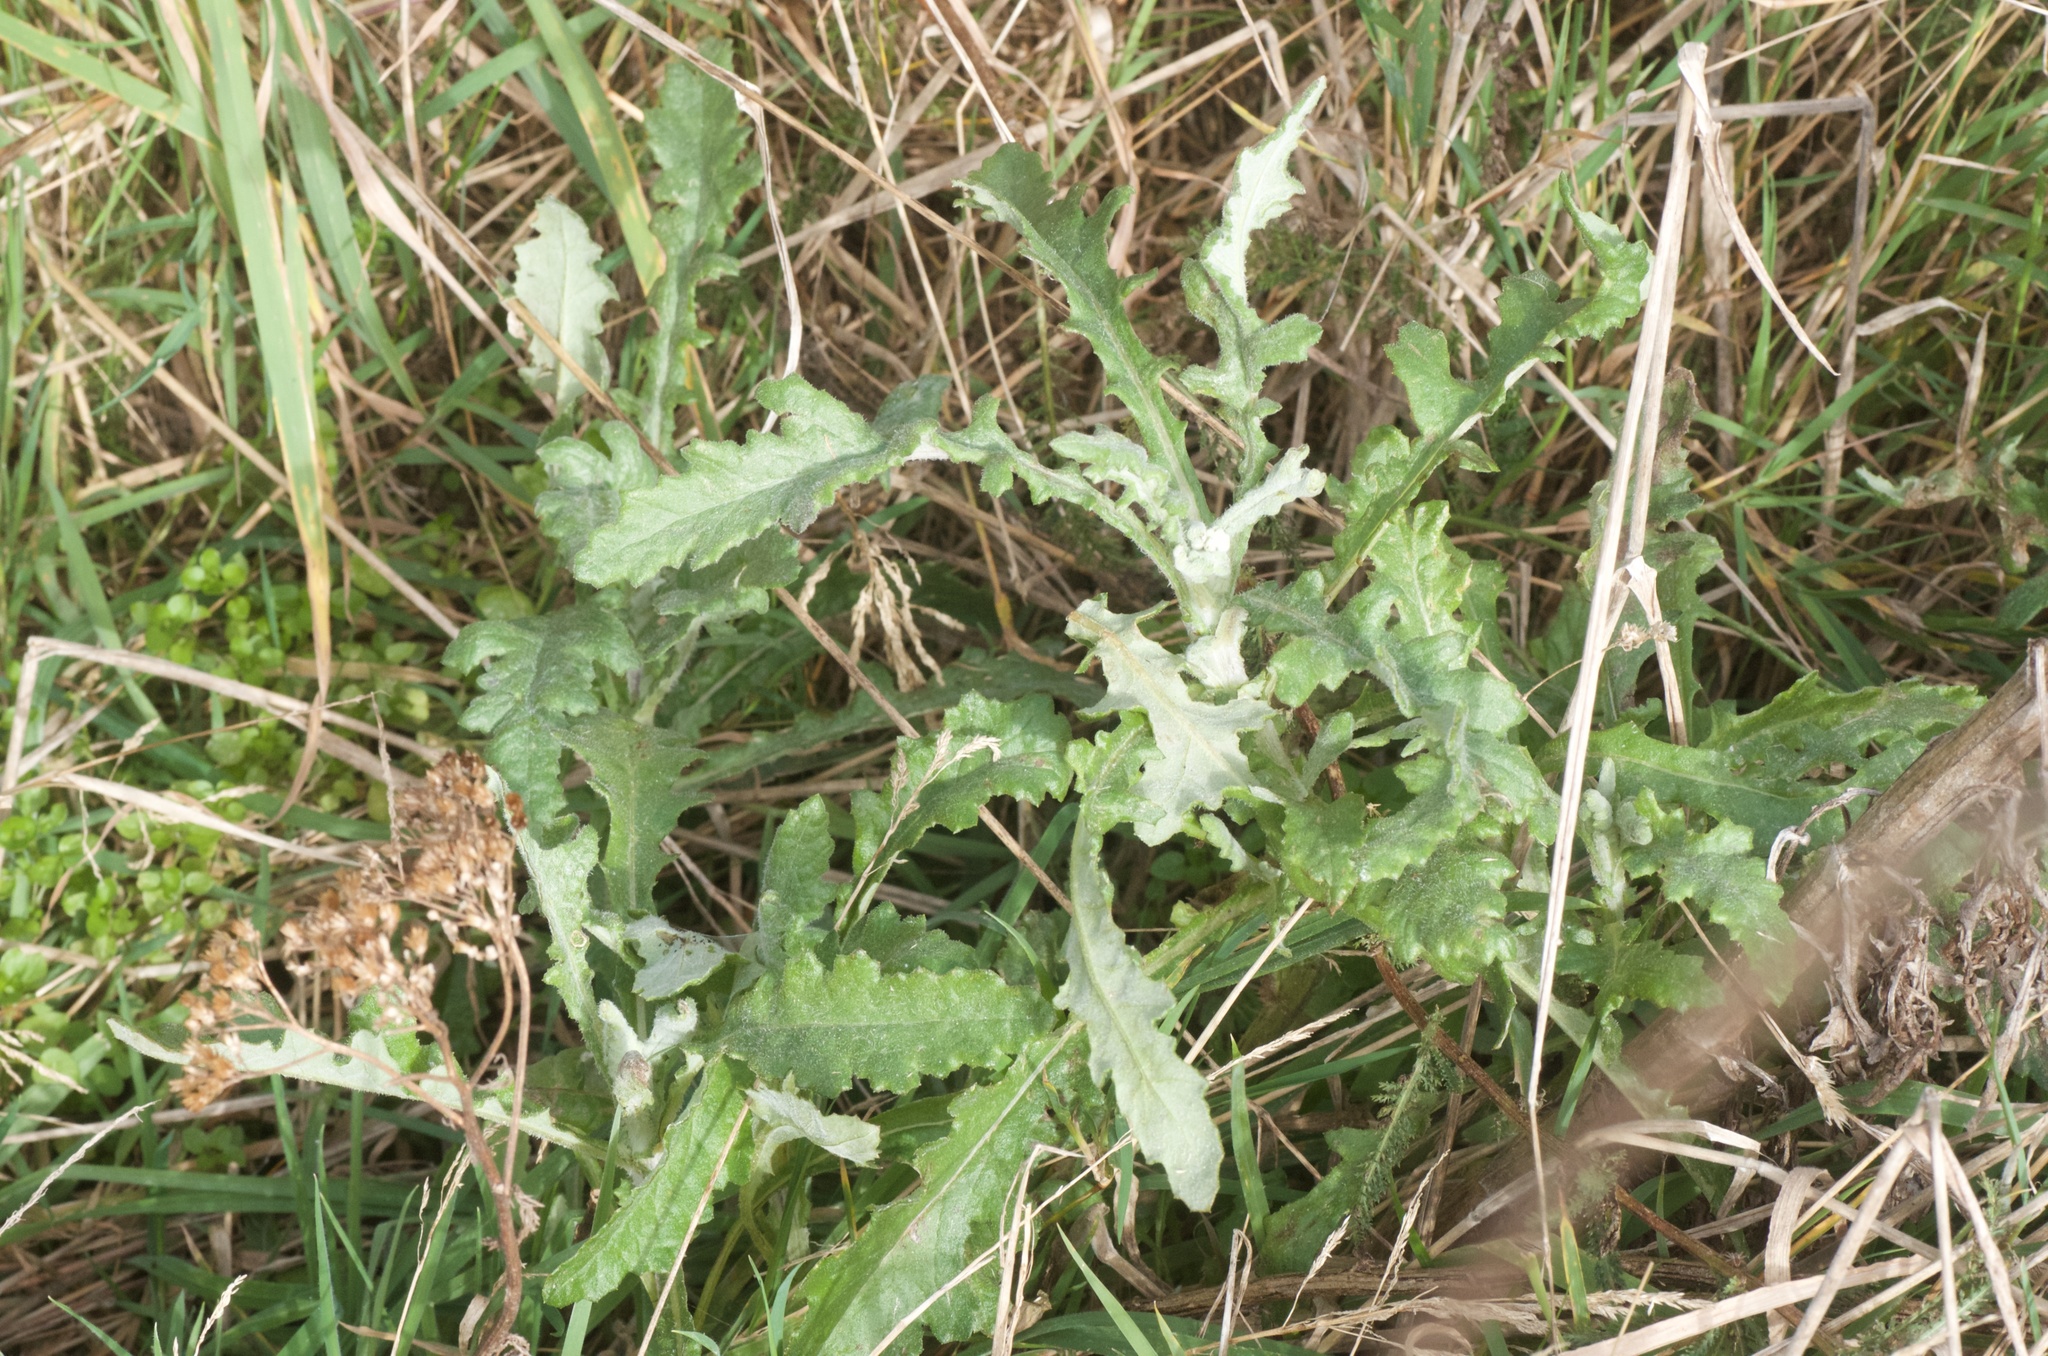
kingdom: Plantae
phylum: Tracheophyta
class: Magnoliopsida
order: Asterales
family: Asteraceae
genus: Senecio
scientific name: Senecio glomeratus
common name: Cutleaf burnweed
